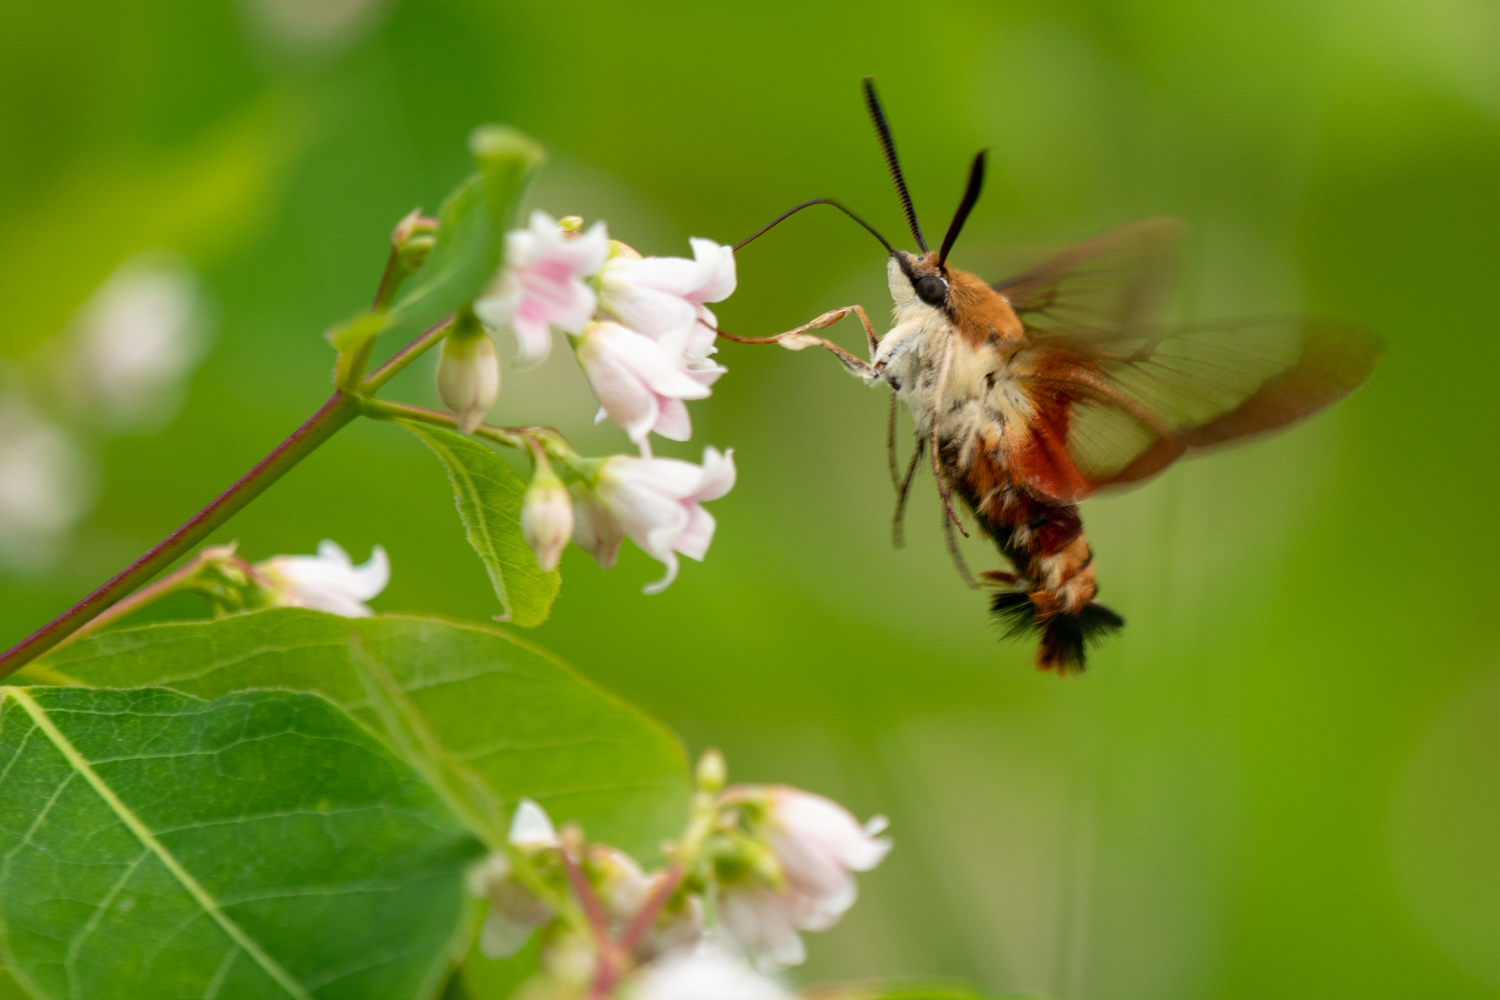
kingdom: Animalia
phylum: Arthropoda
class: Insecta
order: Lepidoptera
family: Sphingidae
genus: Hemaris
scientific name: Hemaris thysbe
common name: Common clear-wing
